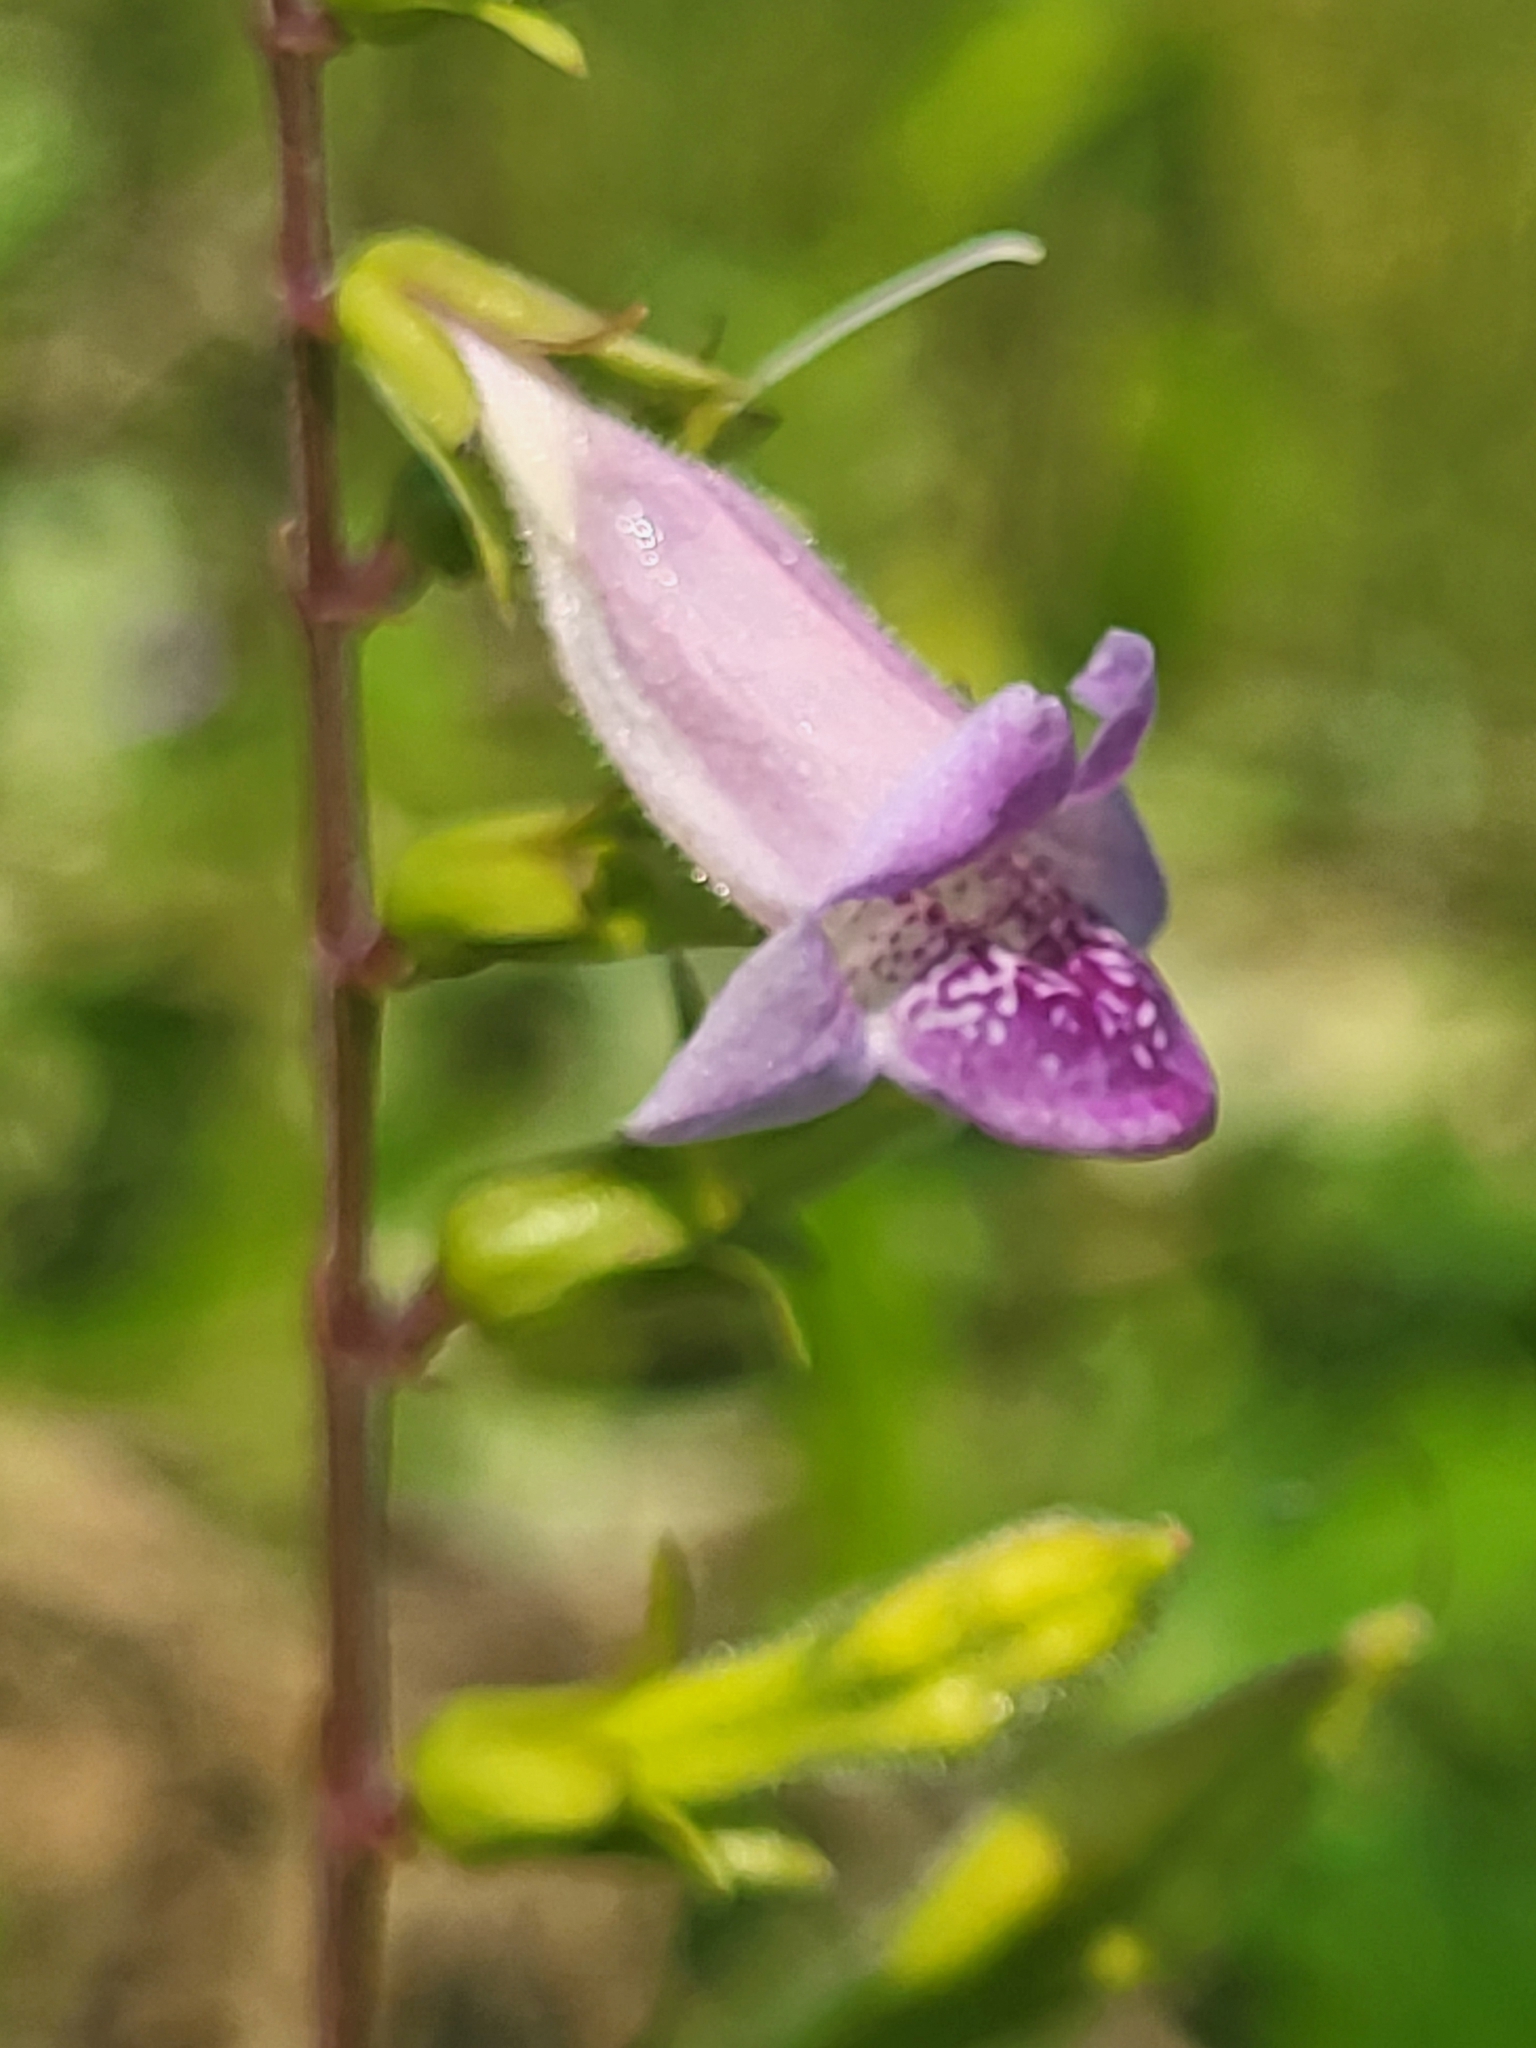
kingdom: Plantae
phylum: Tracheophyta
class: Magnoliopsida
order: Lamiales
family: Acanthaceae
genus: Asystasia
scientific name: Asystasia dalzelliana
